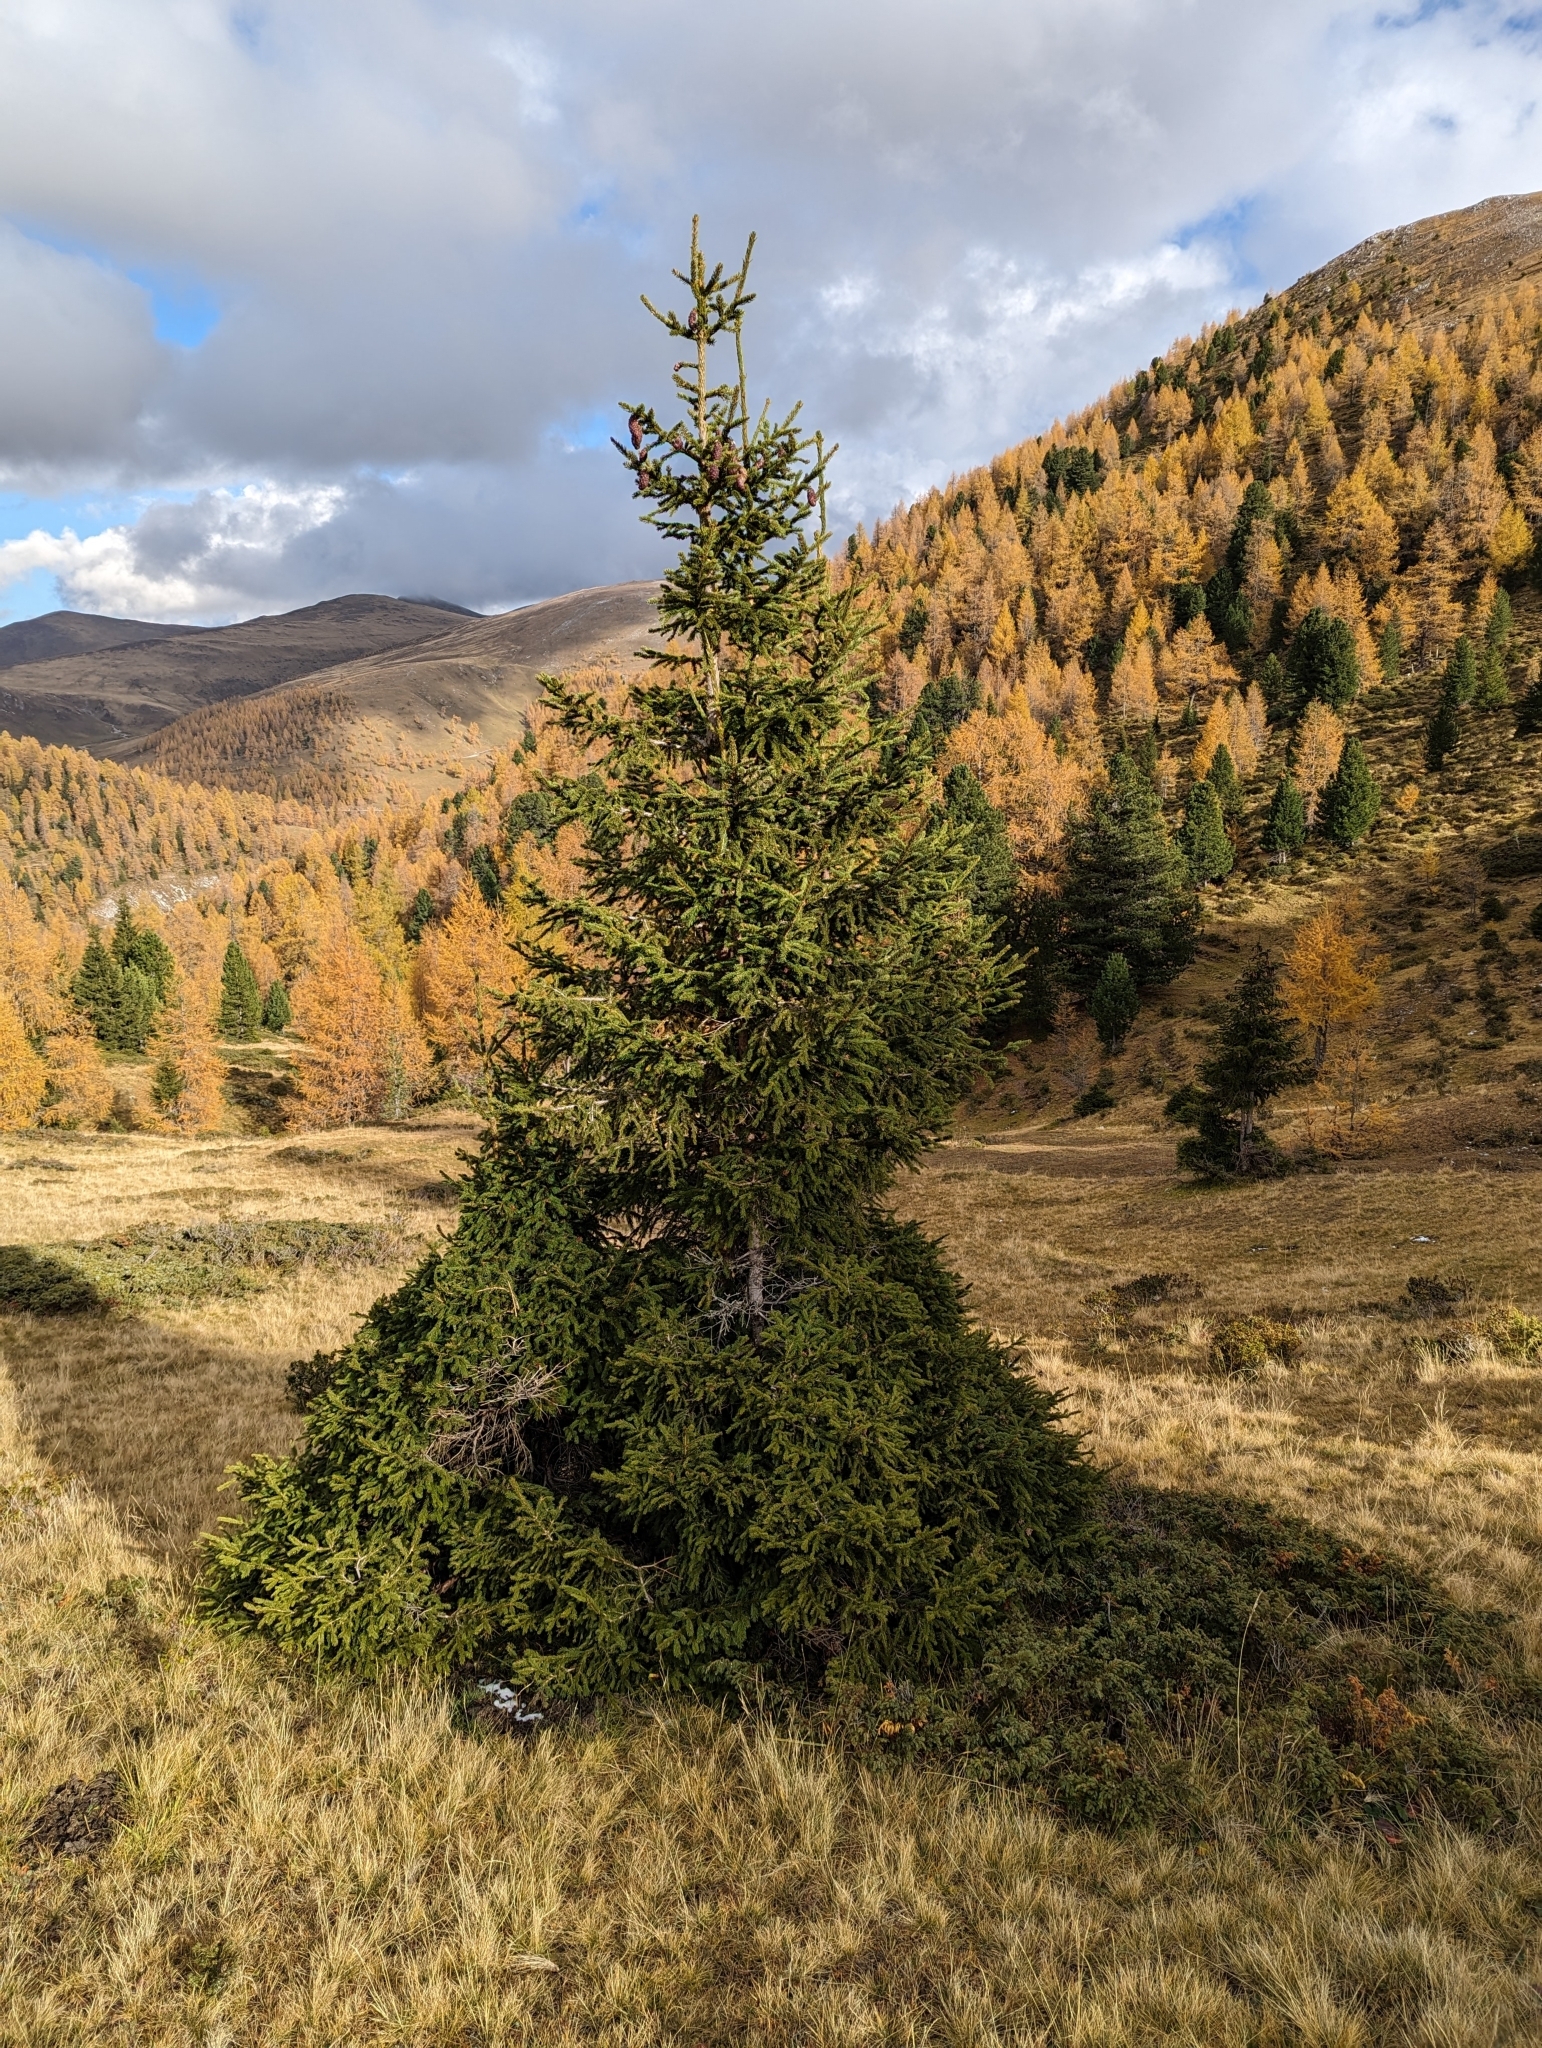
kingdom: Plantae
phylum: Tracheophyta
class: Pinopsida
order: Pinales
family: Pinaceae
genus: Picea
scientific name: Picea abies
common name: Norway spruce
